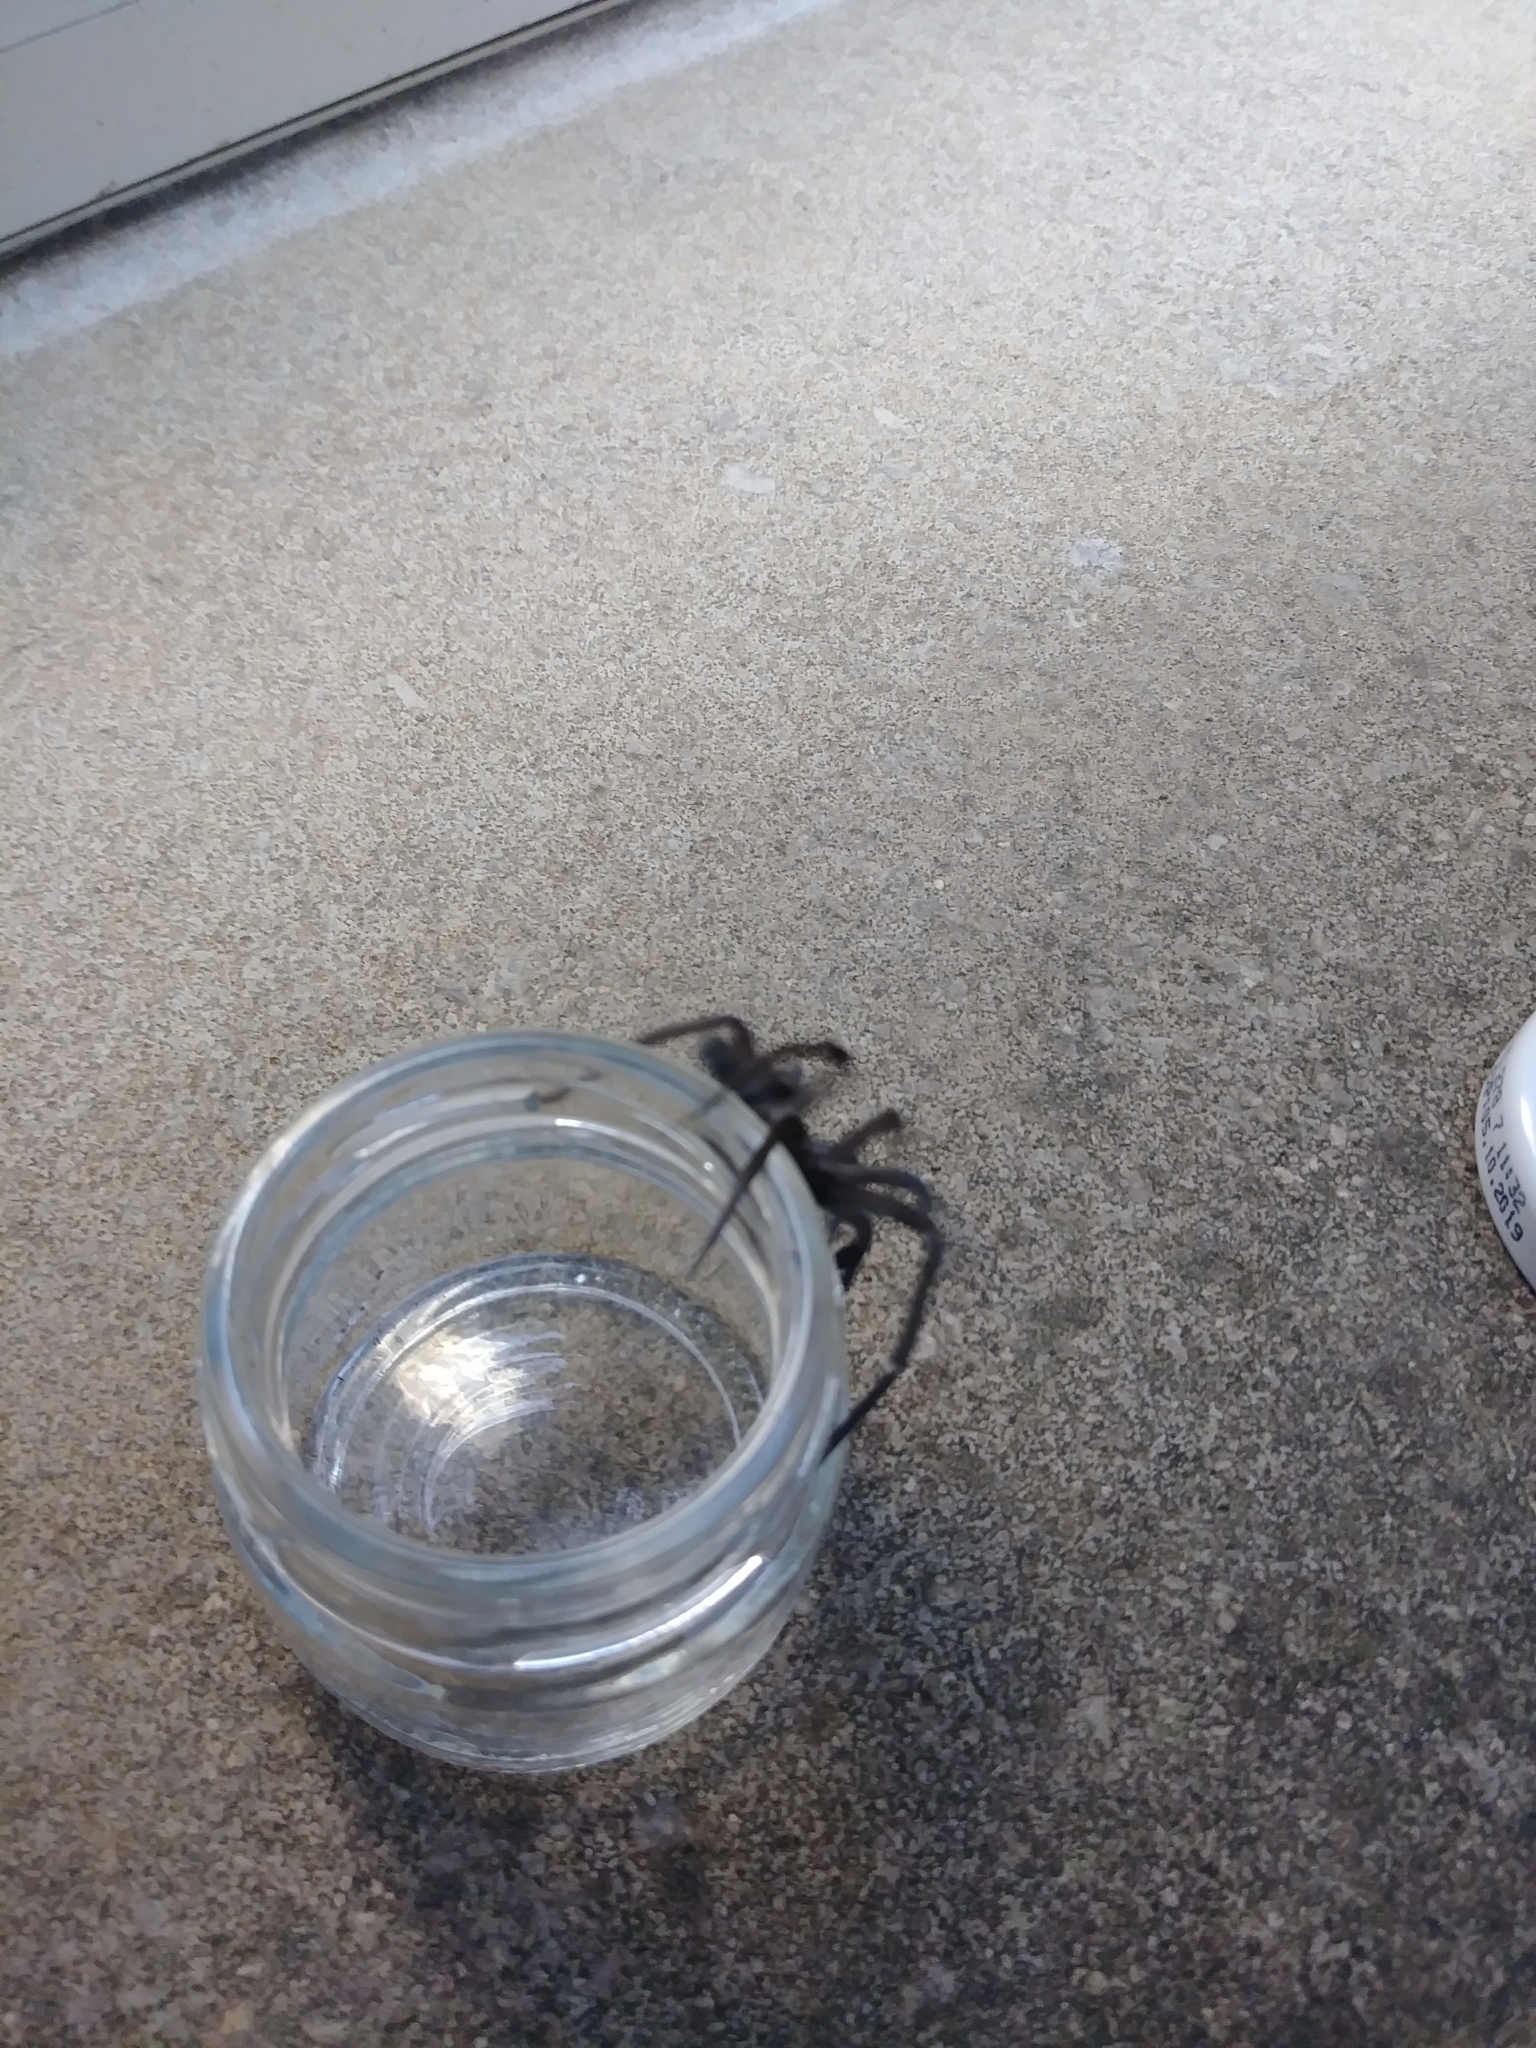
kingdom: Animalia
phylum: Arthropoda
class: Arachnida
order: Araneae
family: Filistatidae
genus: Kukulcania
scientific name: Kukulcania hibernalis
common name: Crevice weaver
